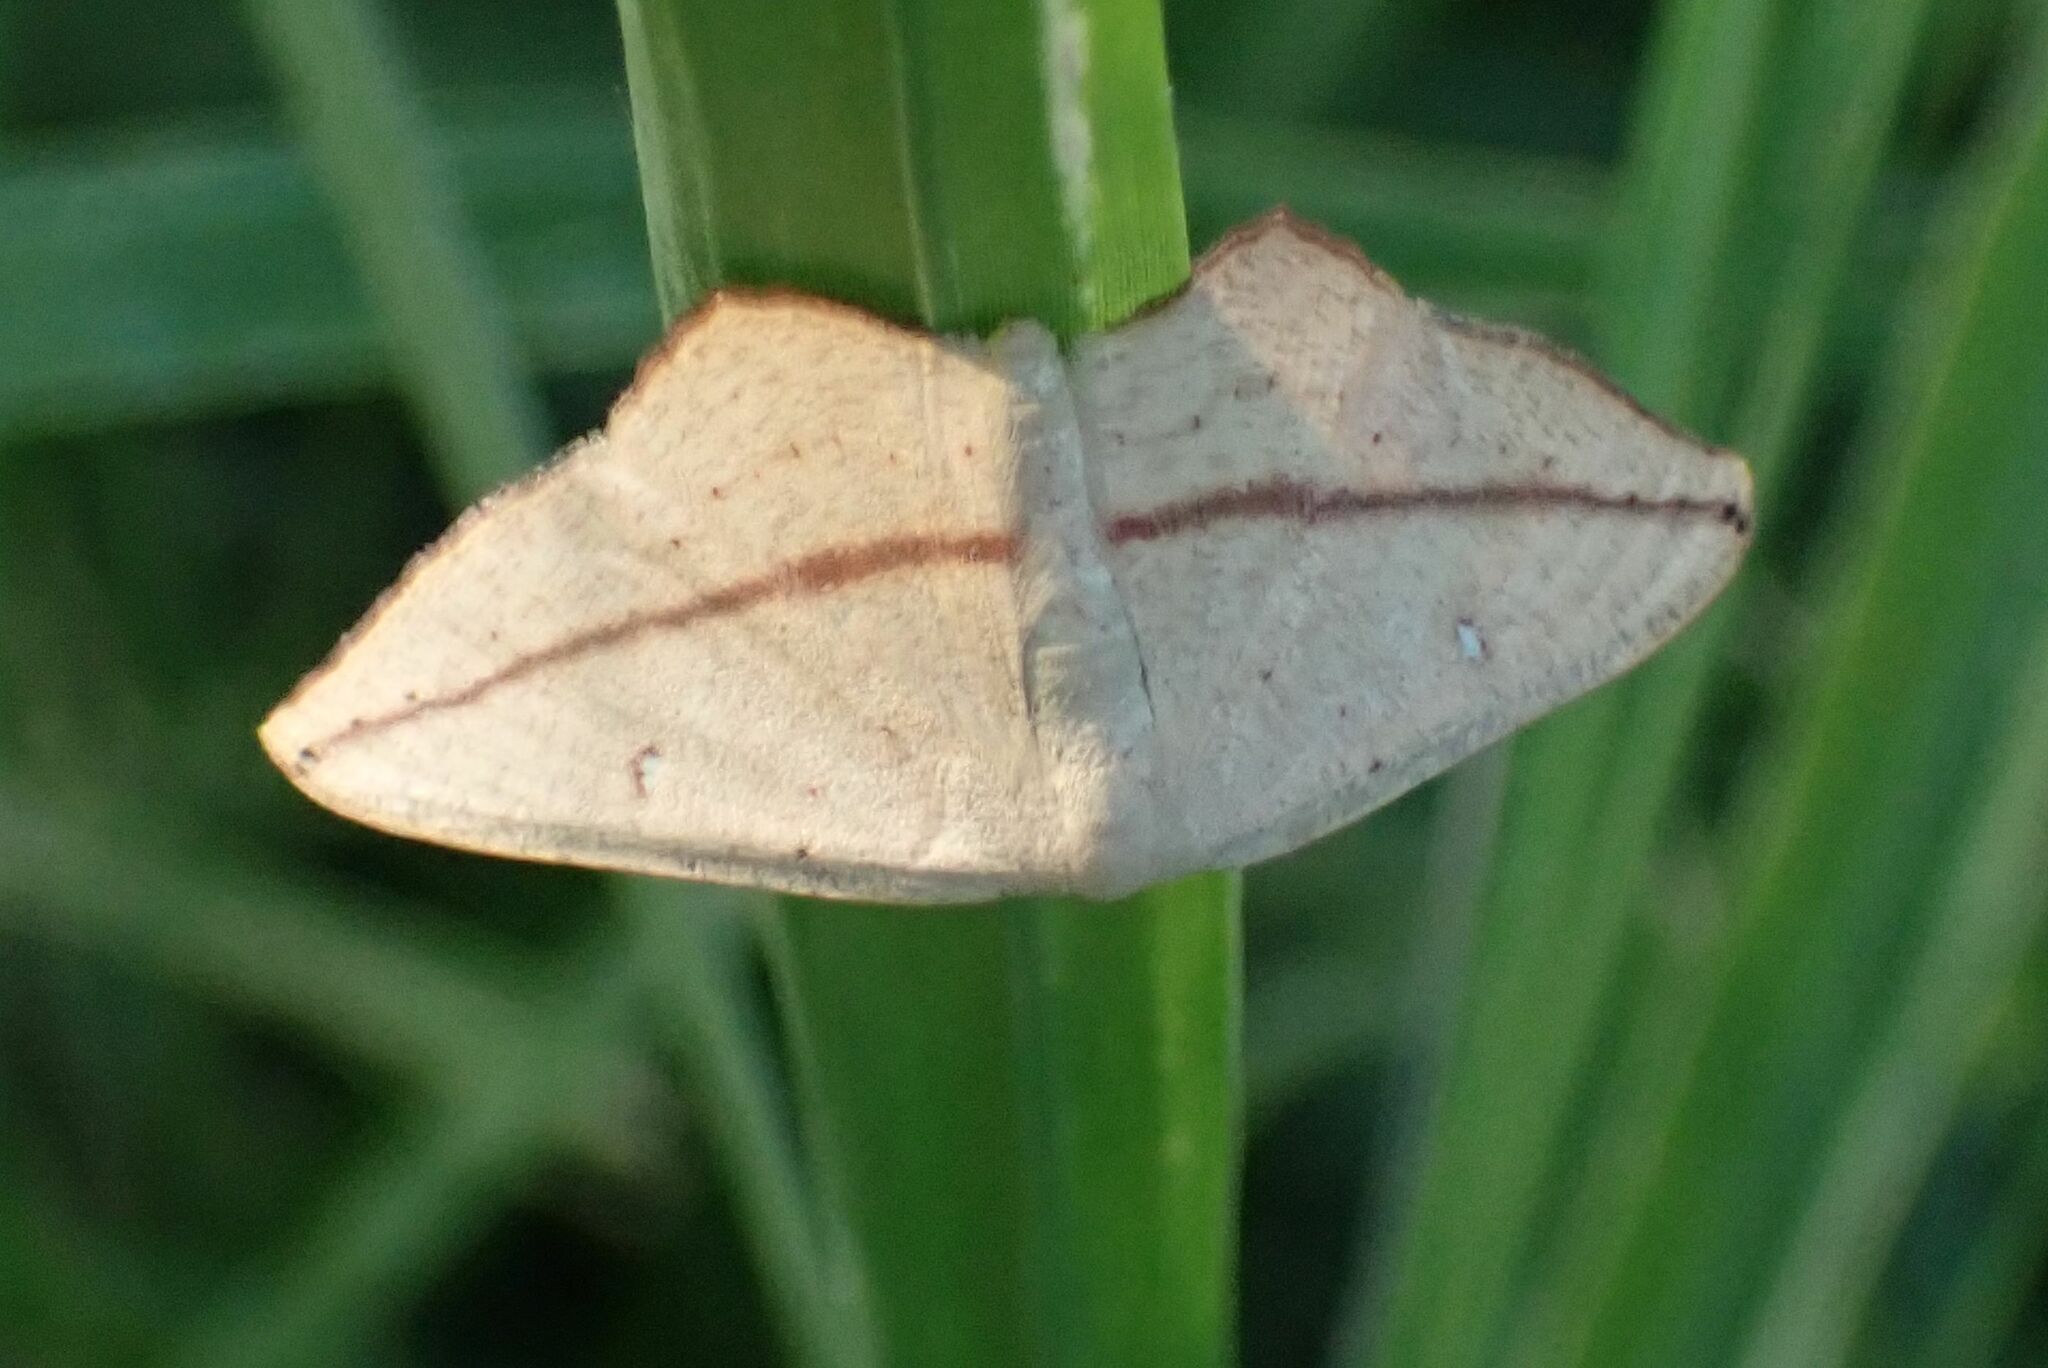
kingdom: Animalia
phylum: Arthropoda
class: Insecta
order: Lepidoptera
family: Geometridae
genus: Traminda
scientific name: Traminda falcata
